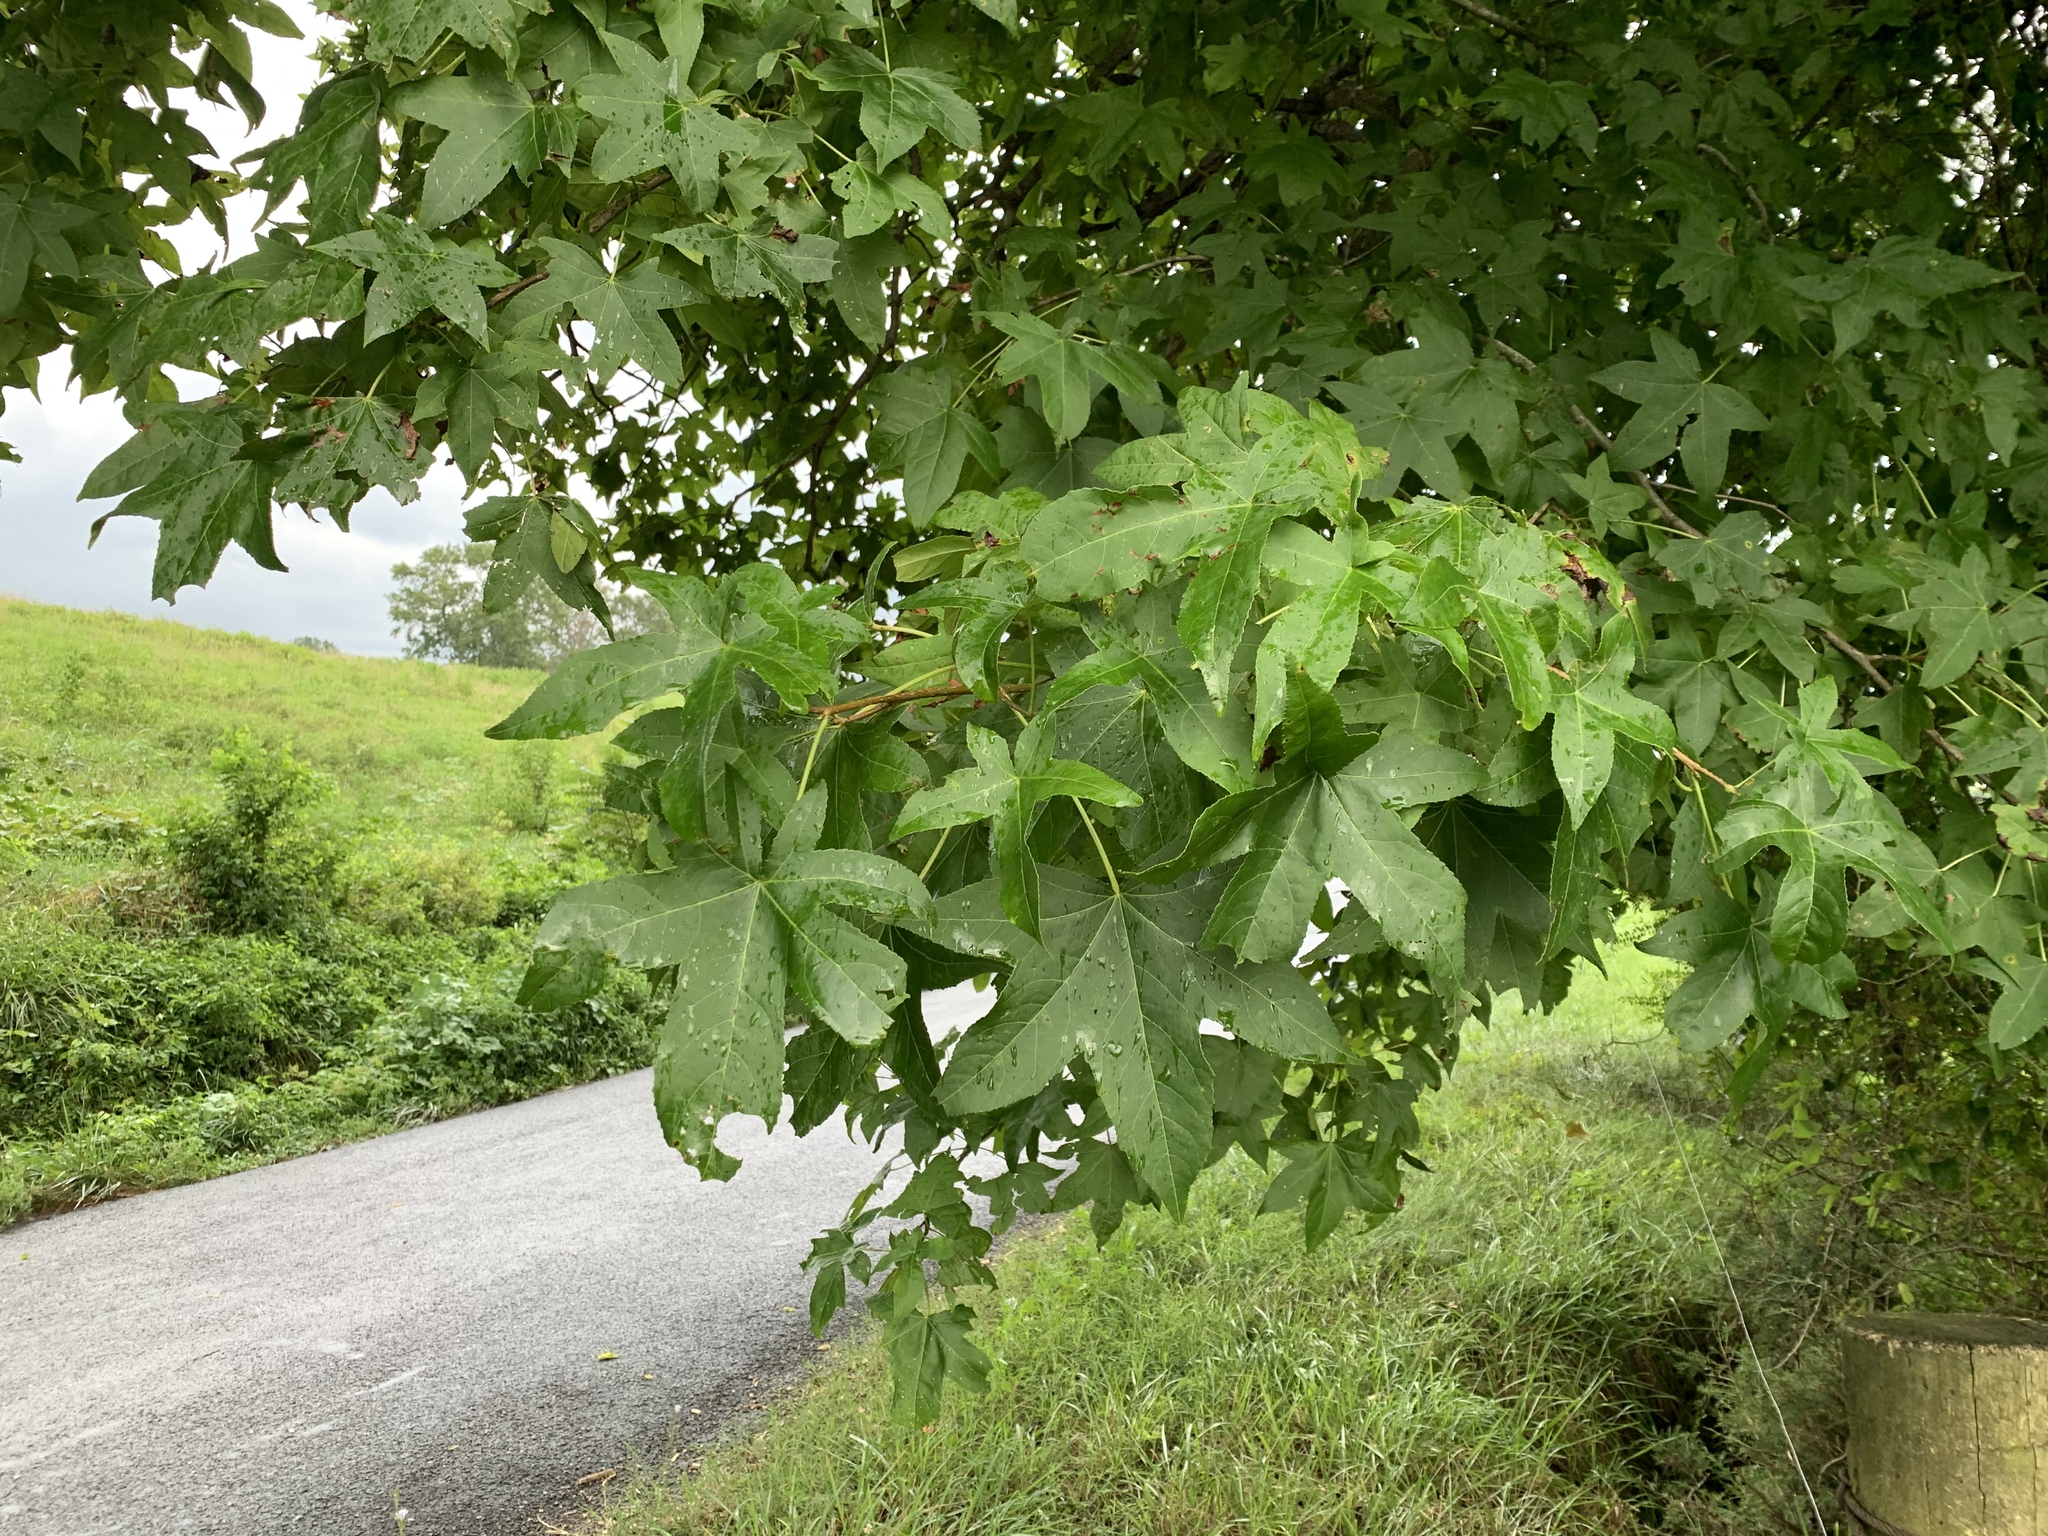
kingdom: Plantae
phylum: Tracheophyta
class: Magnoliopsida
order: Saxifragales
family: Altingiaceae
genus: Liquidambar
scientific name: Liquidambar styraciflua
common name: Sweet gum
